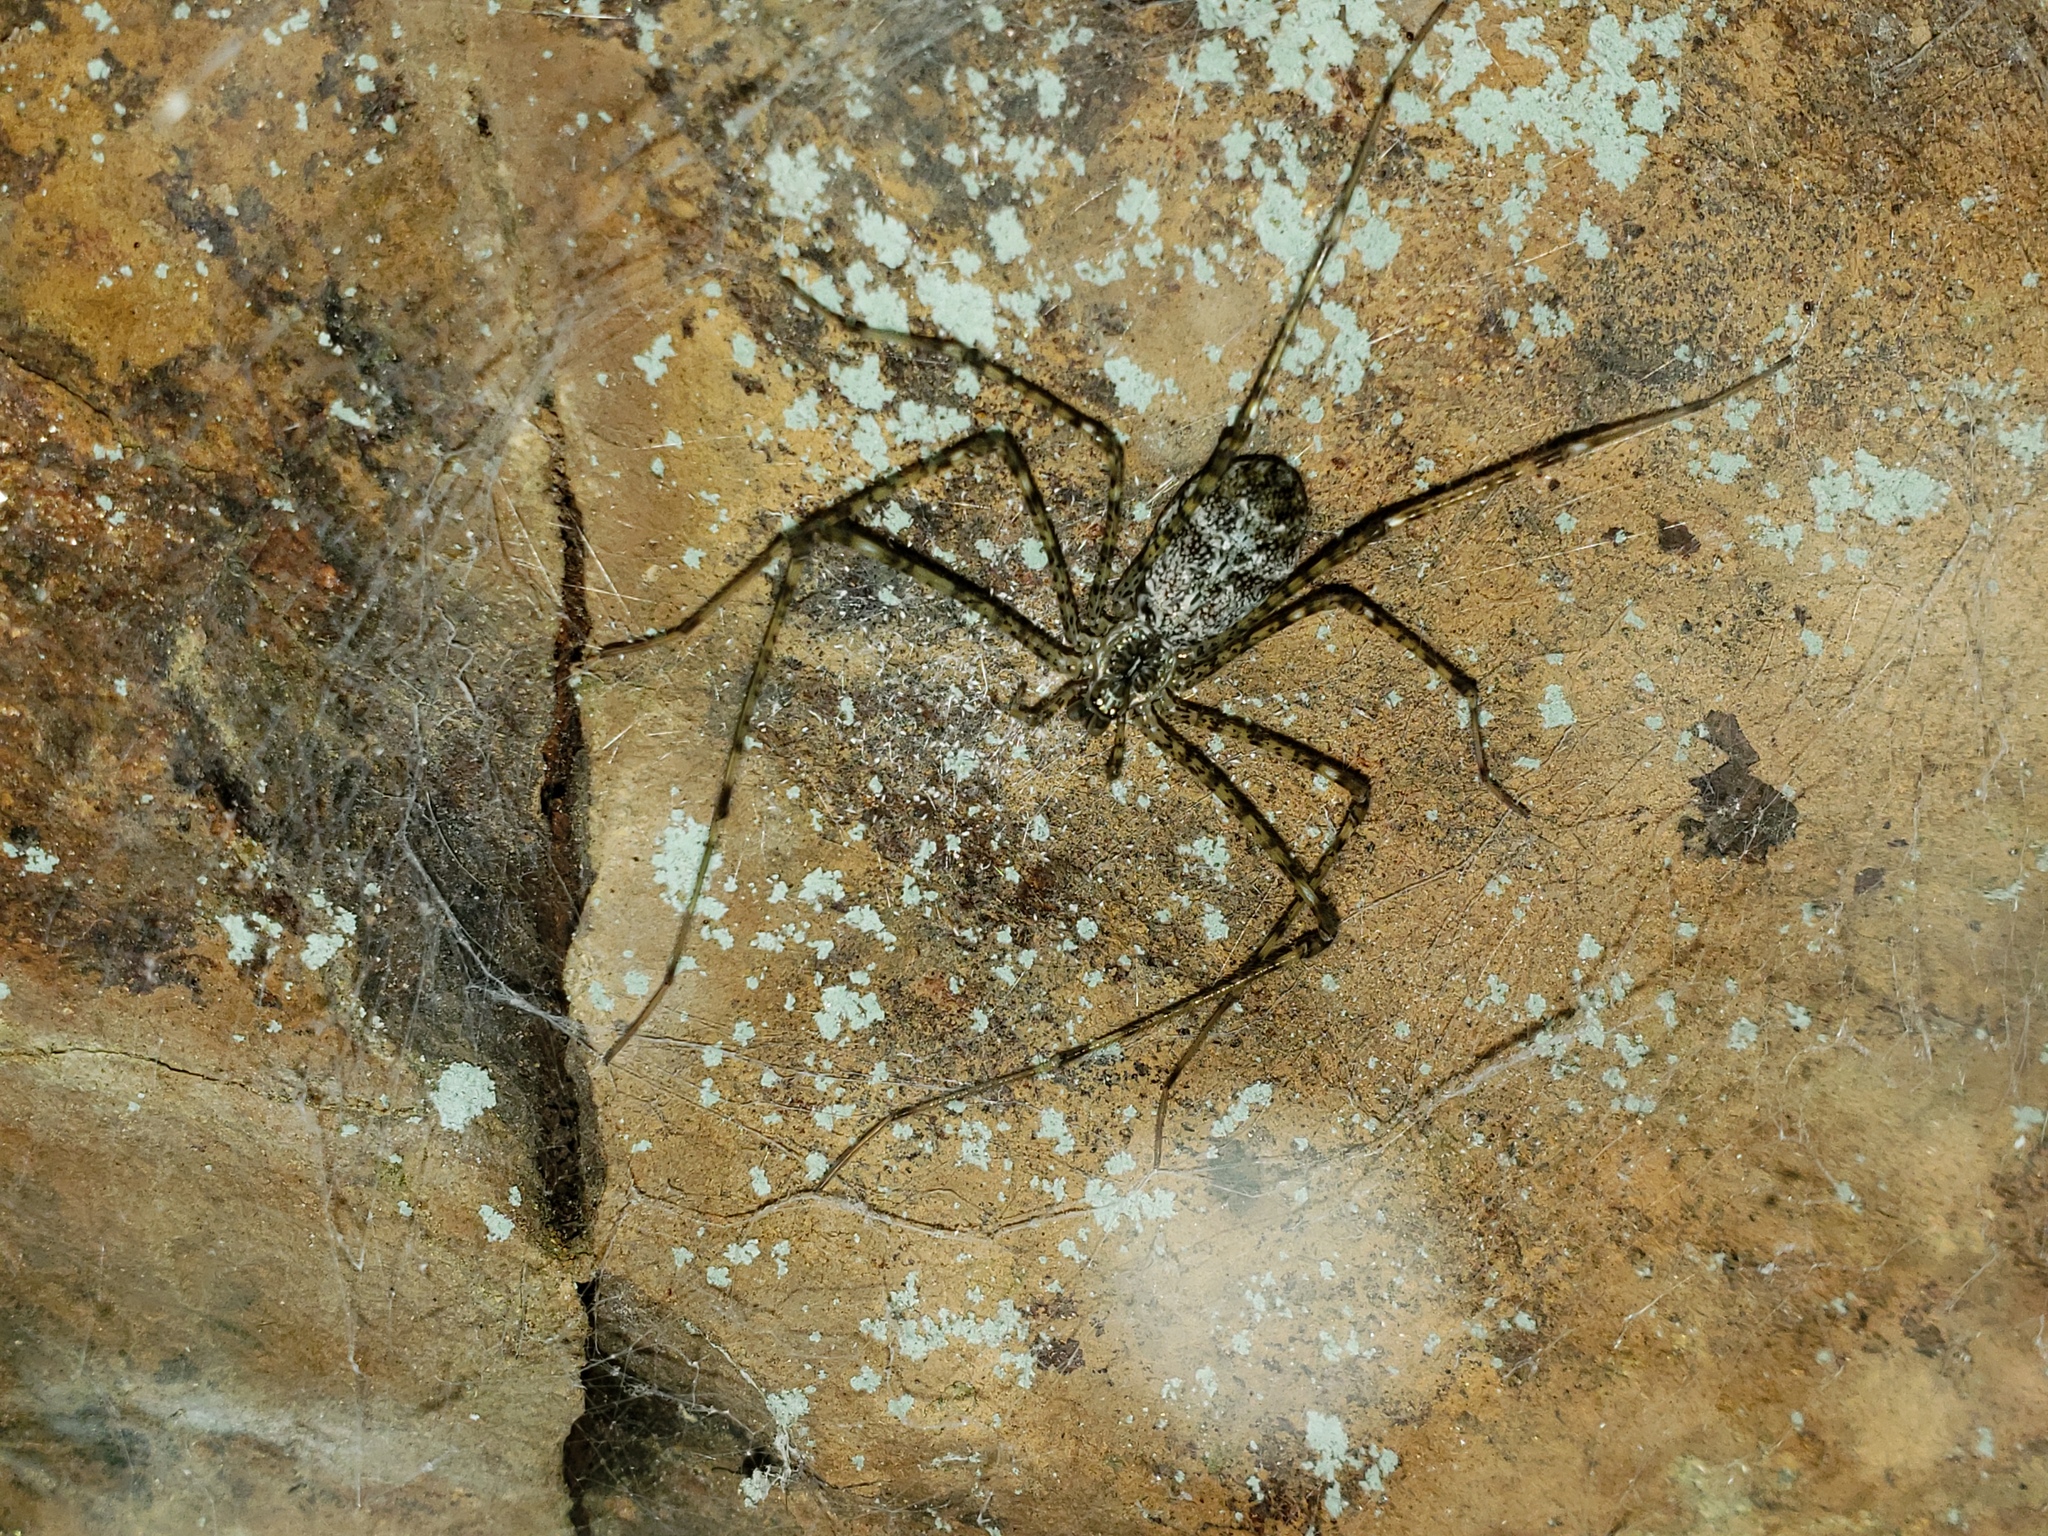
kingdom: Animalia
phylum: Arthropoda
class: Arachnida
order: Araneae
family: Hypochilidae
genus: Hypochilus
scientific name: Hypochilus pococki
